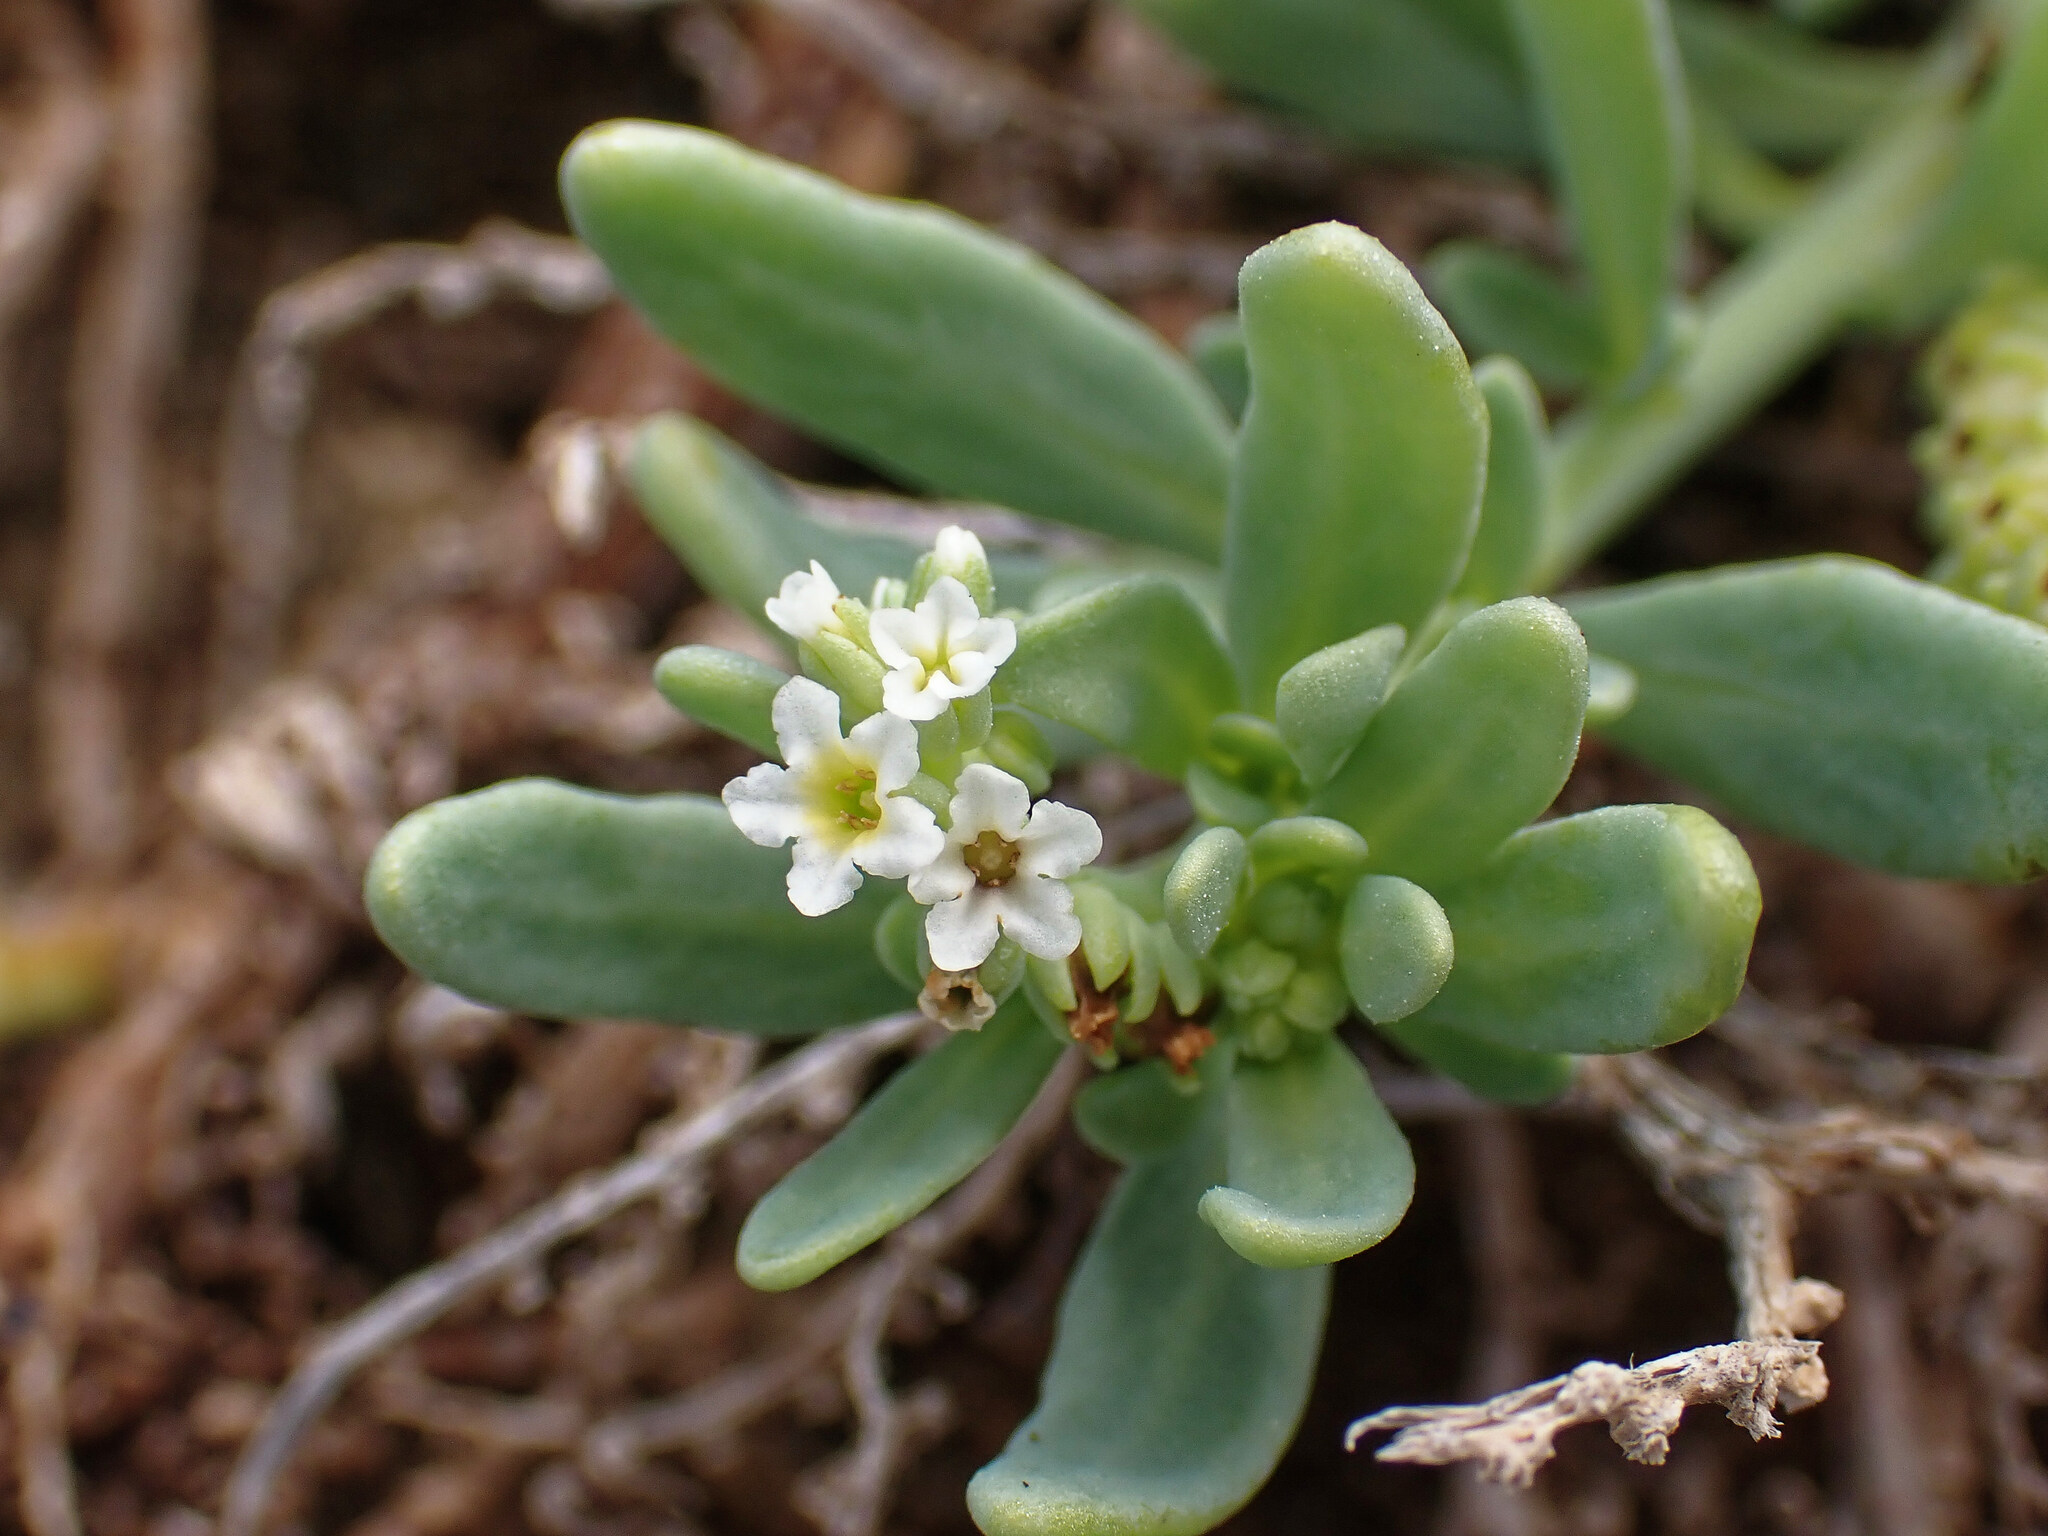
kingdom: Plantae
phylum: Tracheophyta
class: Magnoliopsida
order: Boraginales
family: Heliotropiaceae
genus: Heliotropium
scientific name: Heliotropium curassavicum
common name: Seaside heliotrope
